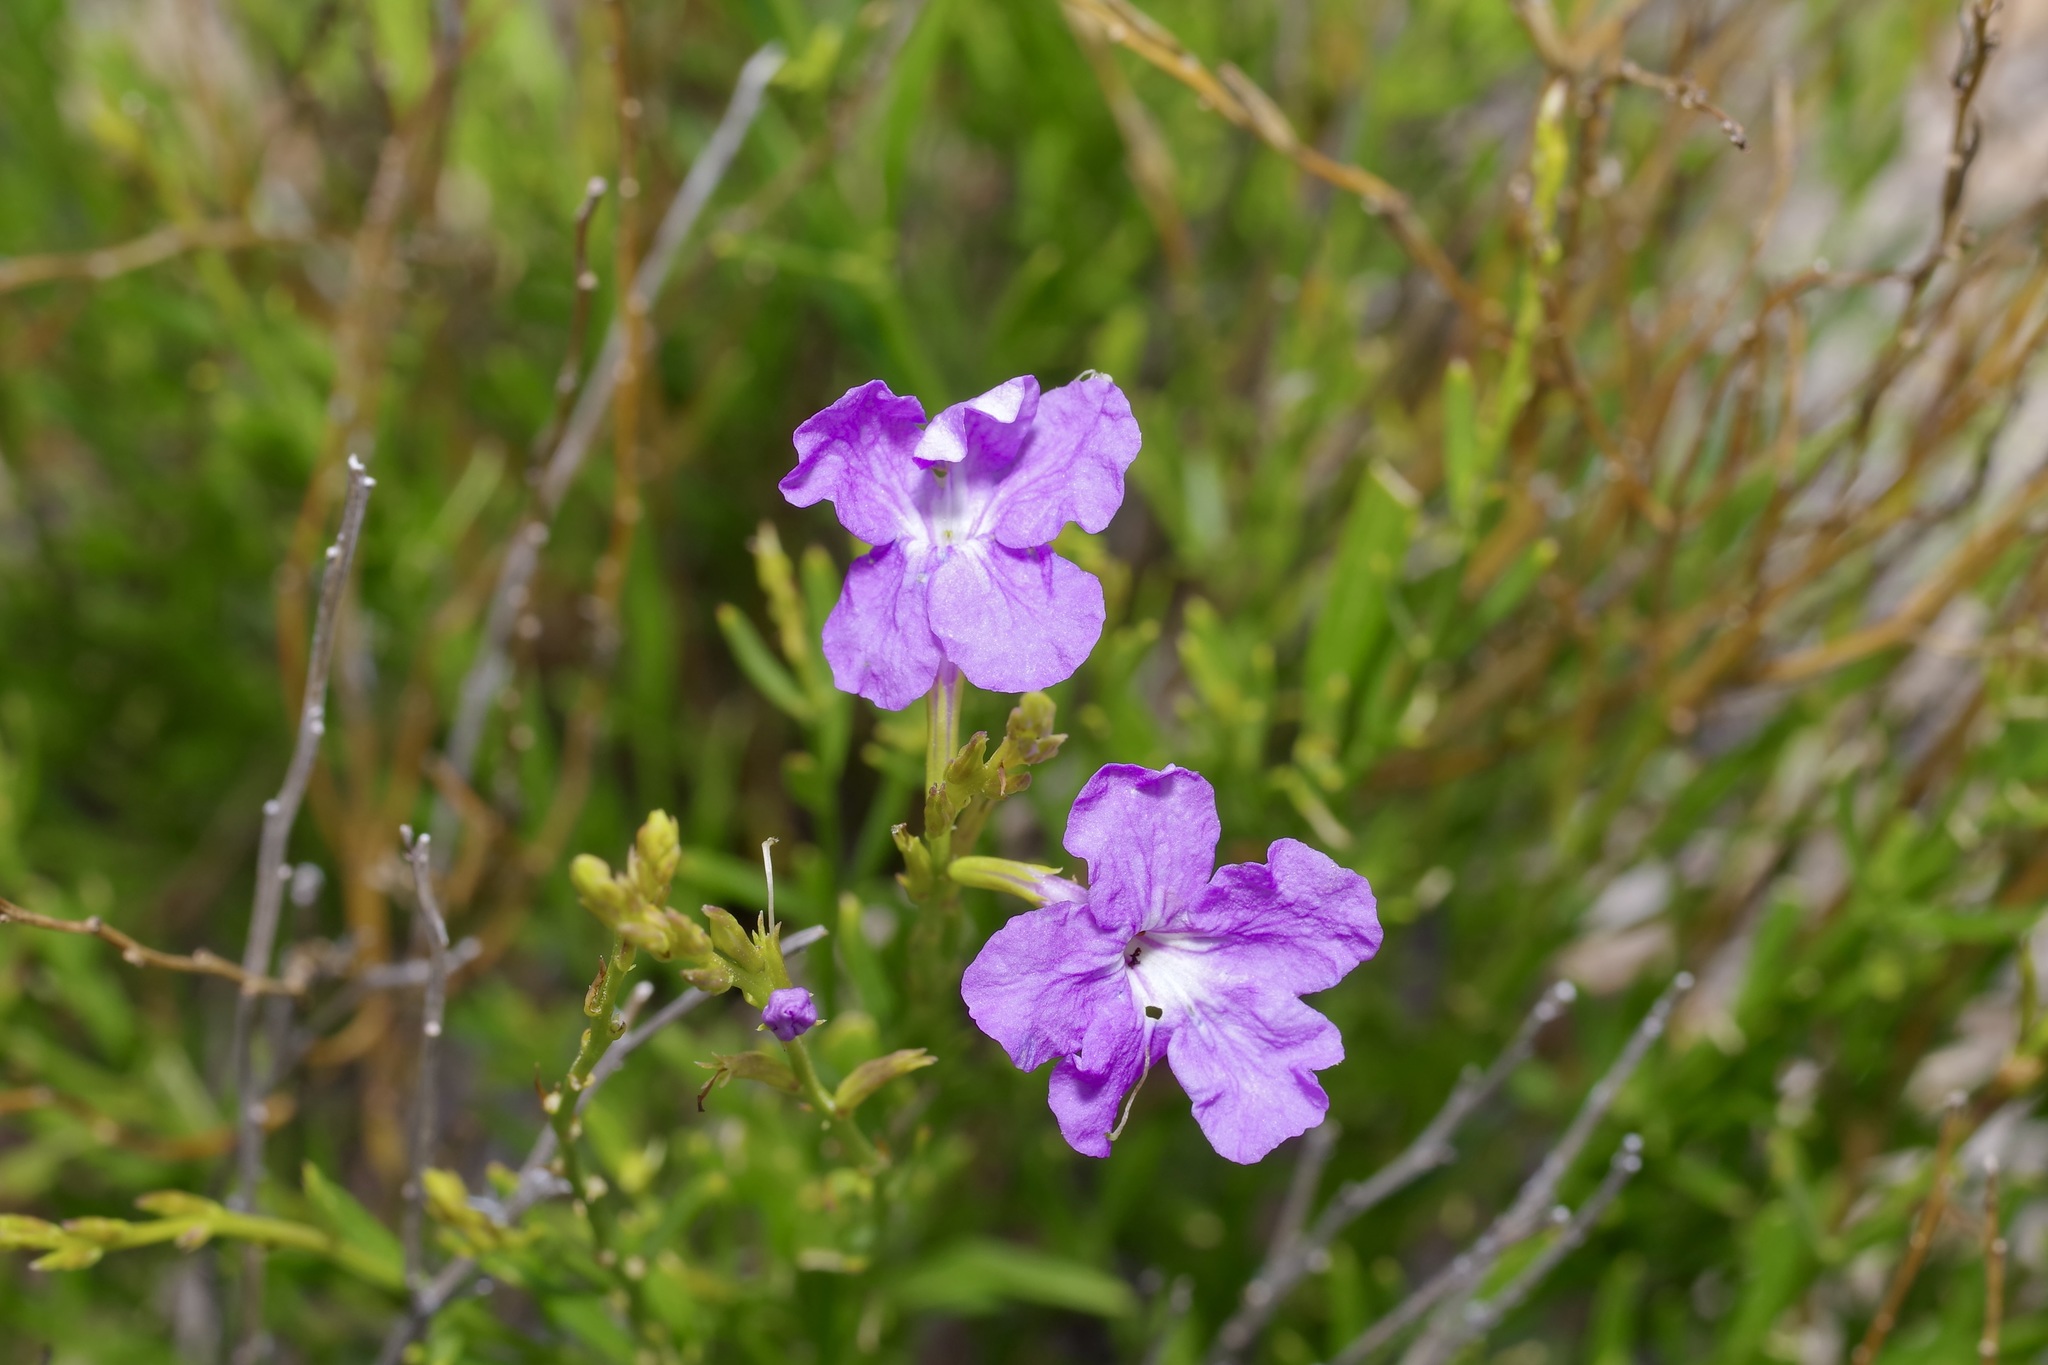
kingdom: Plantae
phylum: Tracheophyta
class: Magnoliopsida
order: Lamiales
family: Verbenaceae
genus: Bouchea
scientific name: Bouchea linifolia
